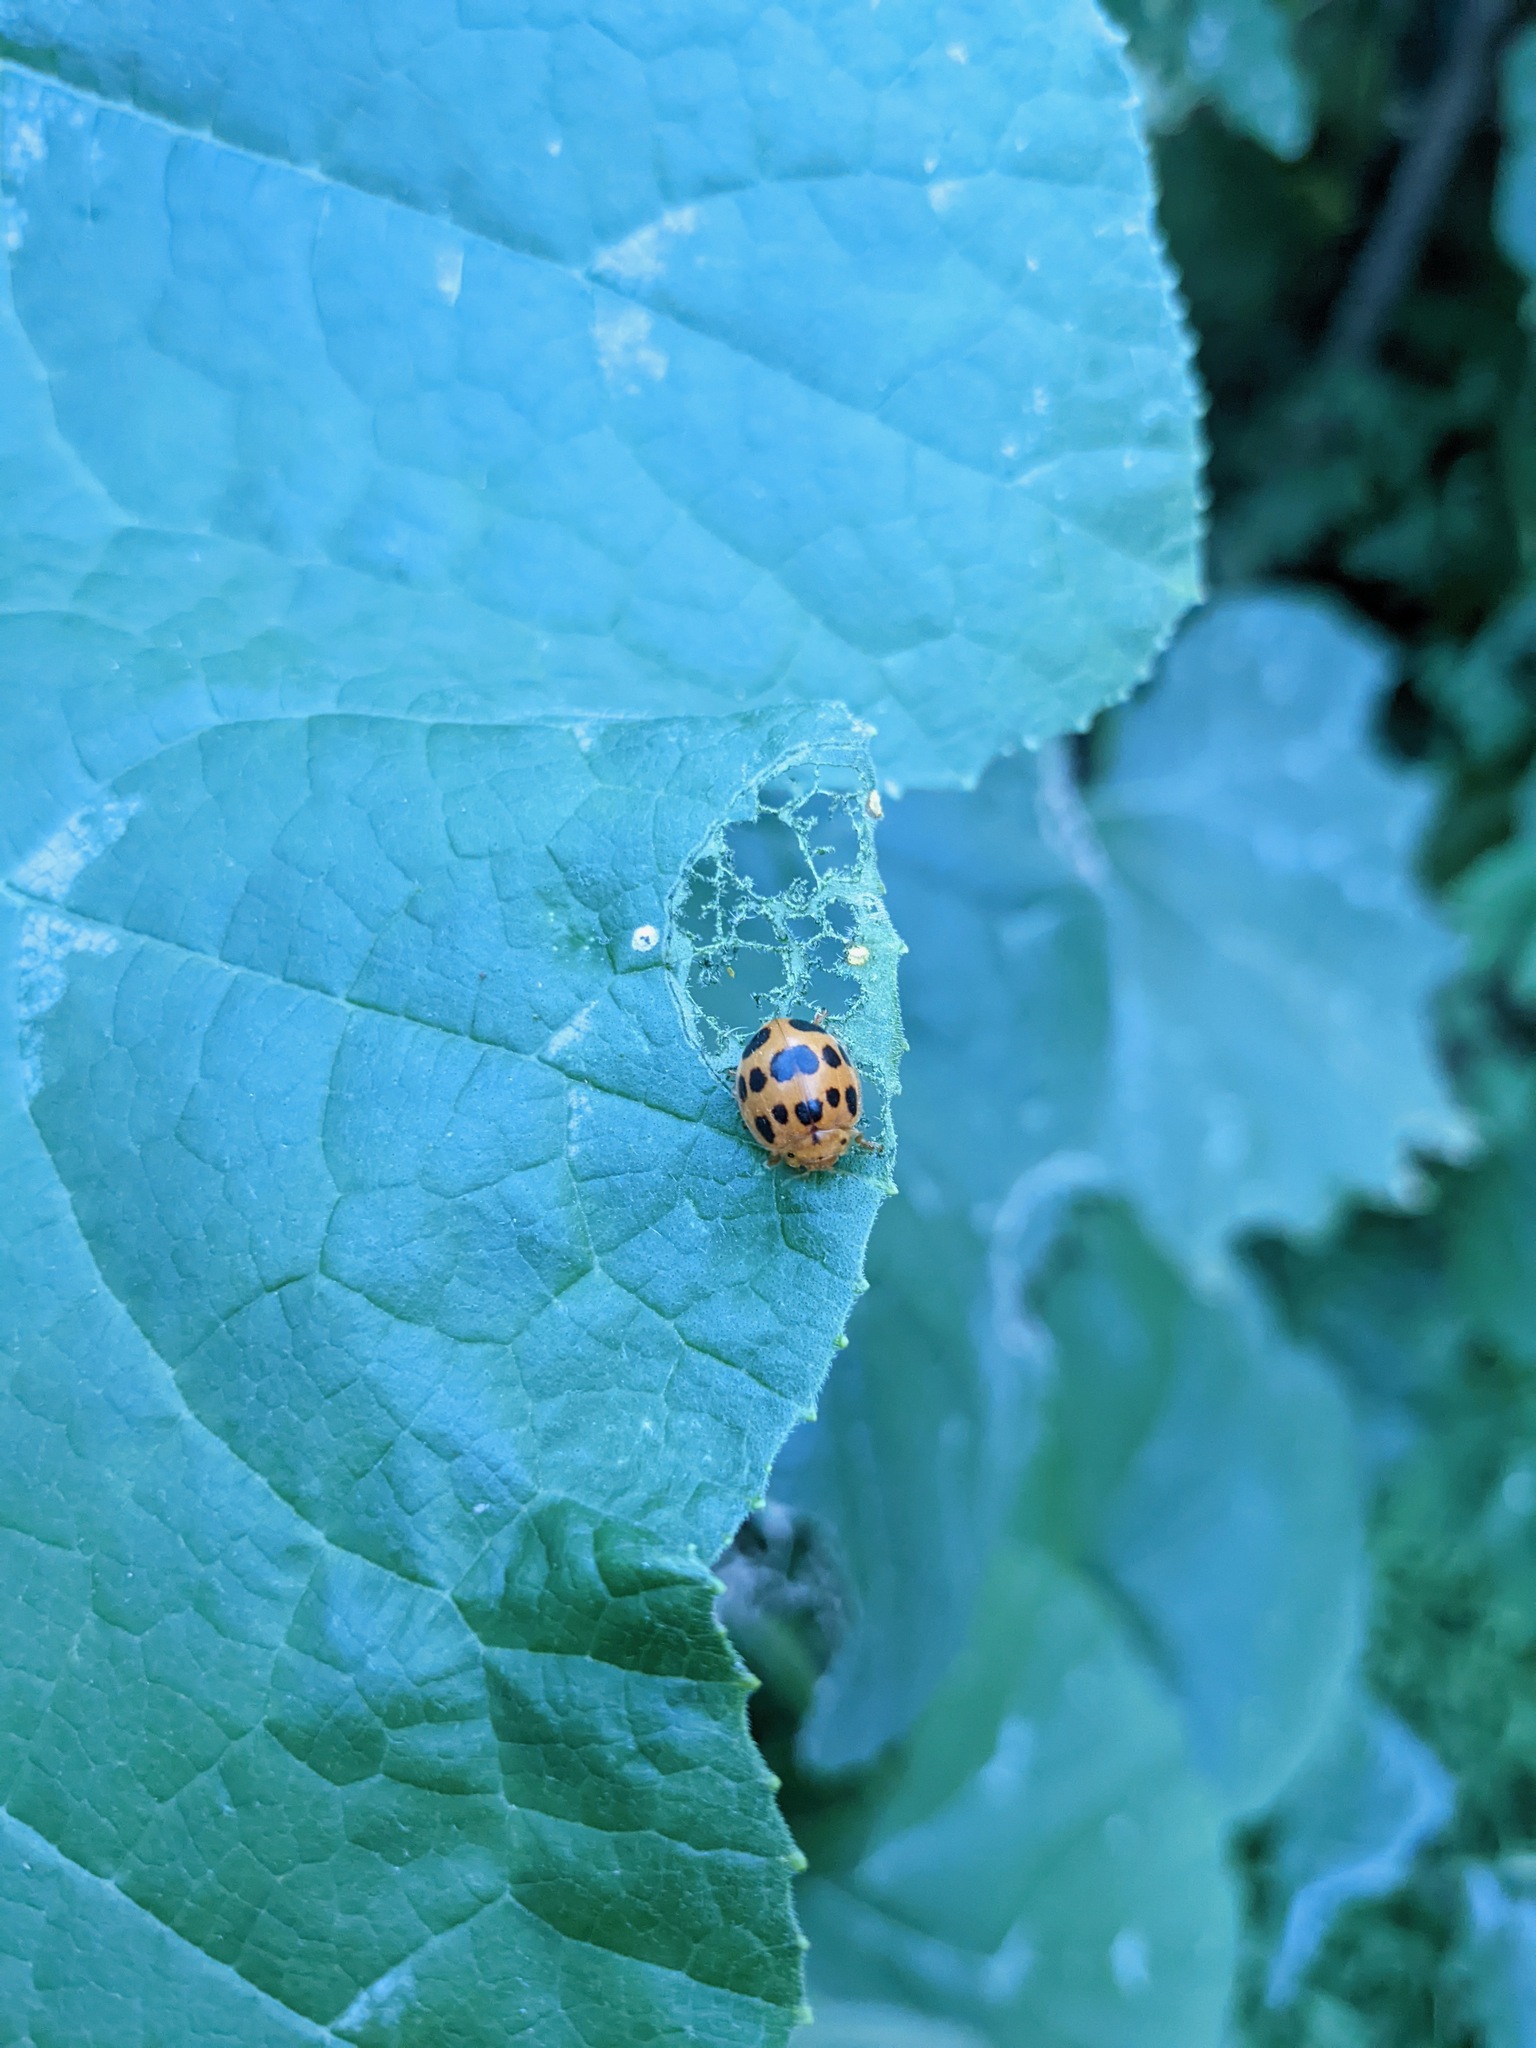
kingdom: Animalia
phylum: Arthropoda
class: Insecta
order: Coleoptera
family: Coccinellidae
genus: Epilachna
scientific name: Epilachna borealis
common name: Squash beetle
